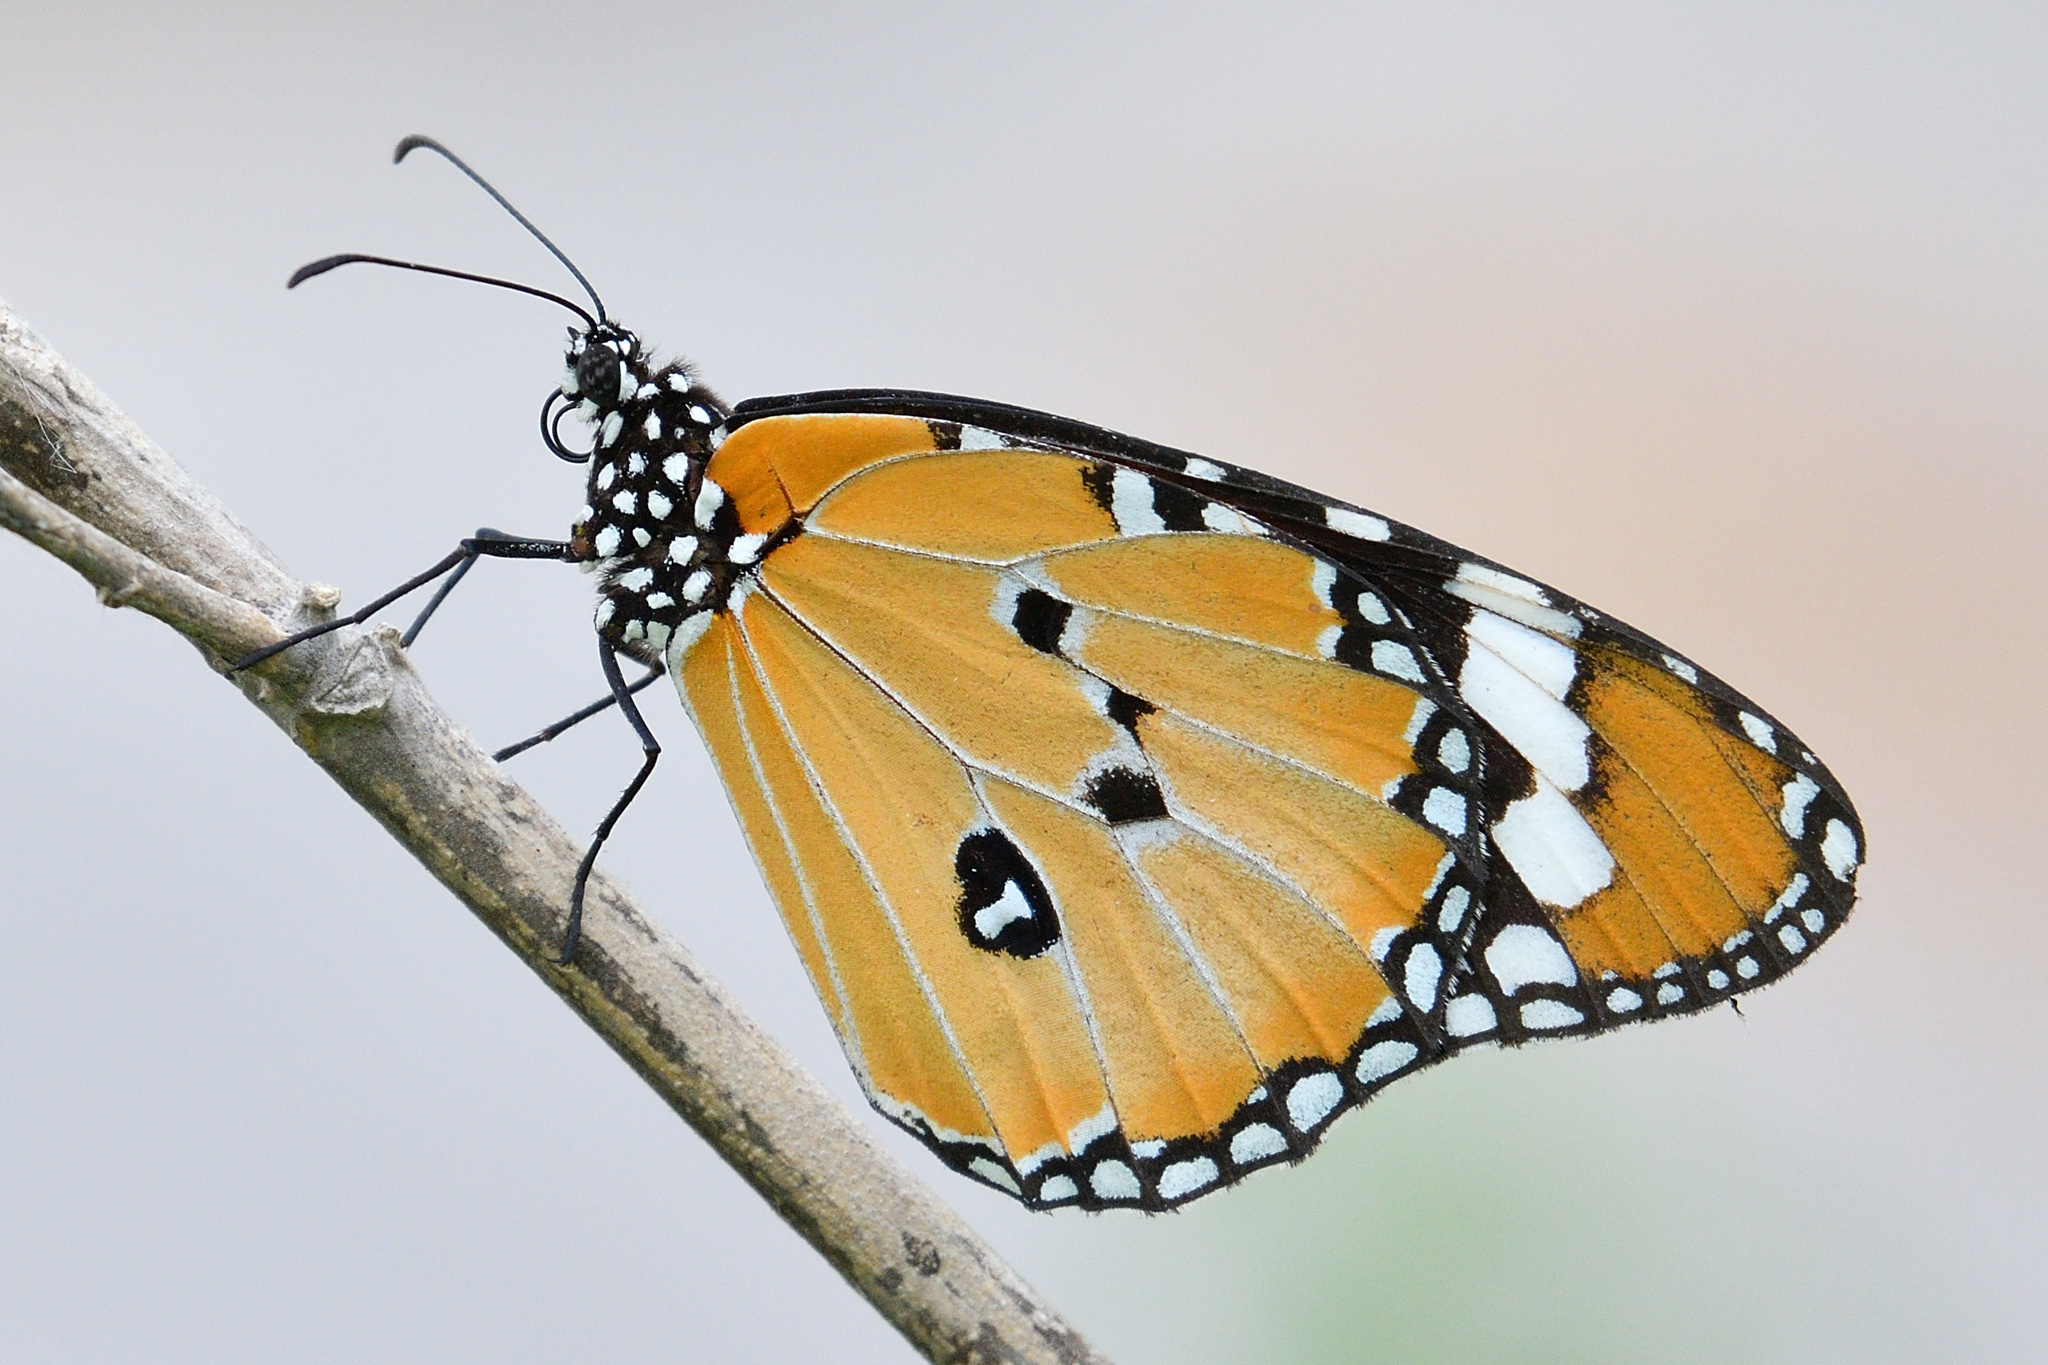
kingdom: Animalia
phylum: Arthropoda
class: Insecta
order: Lepidoptera
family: Nymphalidae
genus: Danaus
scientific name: Danaus chrysippus
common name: Plain tiger
